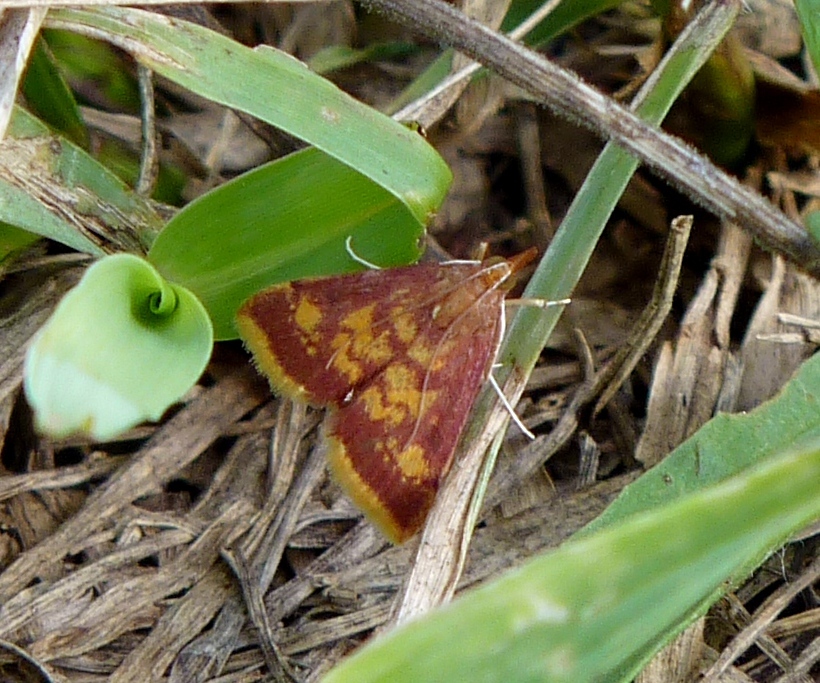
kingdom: Animalia
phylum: Arthropoda
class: Insecta
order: Lepidoptera
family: Crambidae
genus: Pyrausta
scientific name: Pyrausta acrionalis
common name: Mint-loving pyrausta moth
